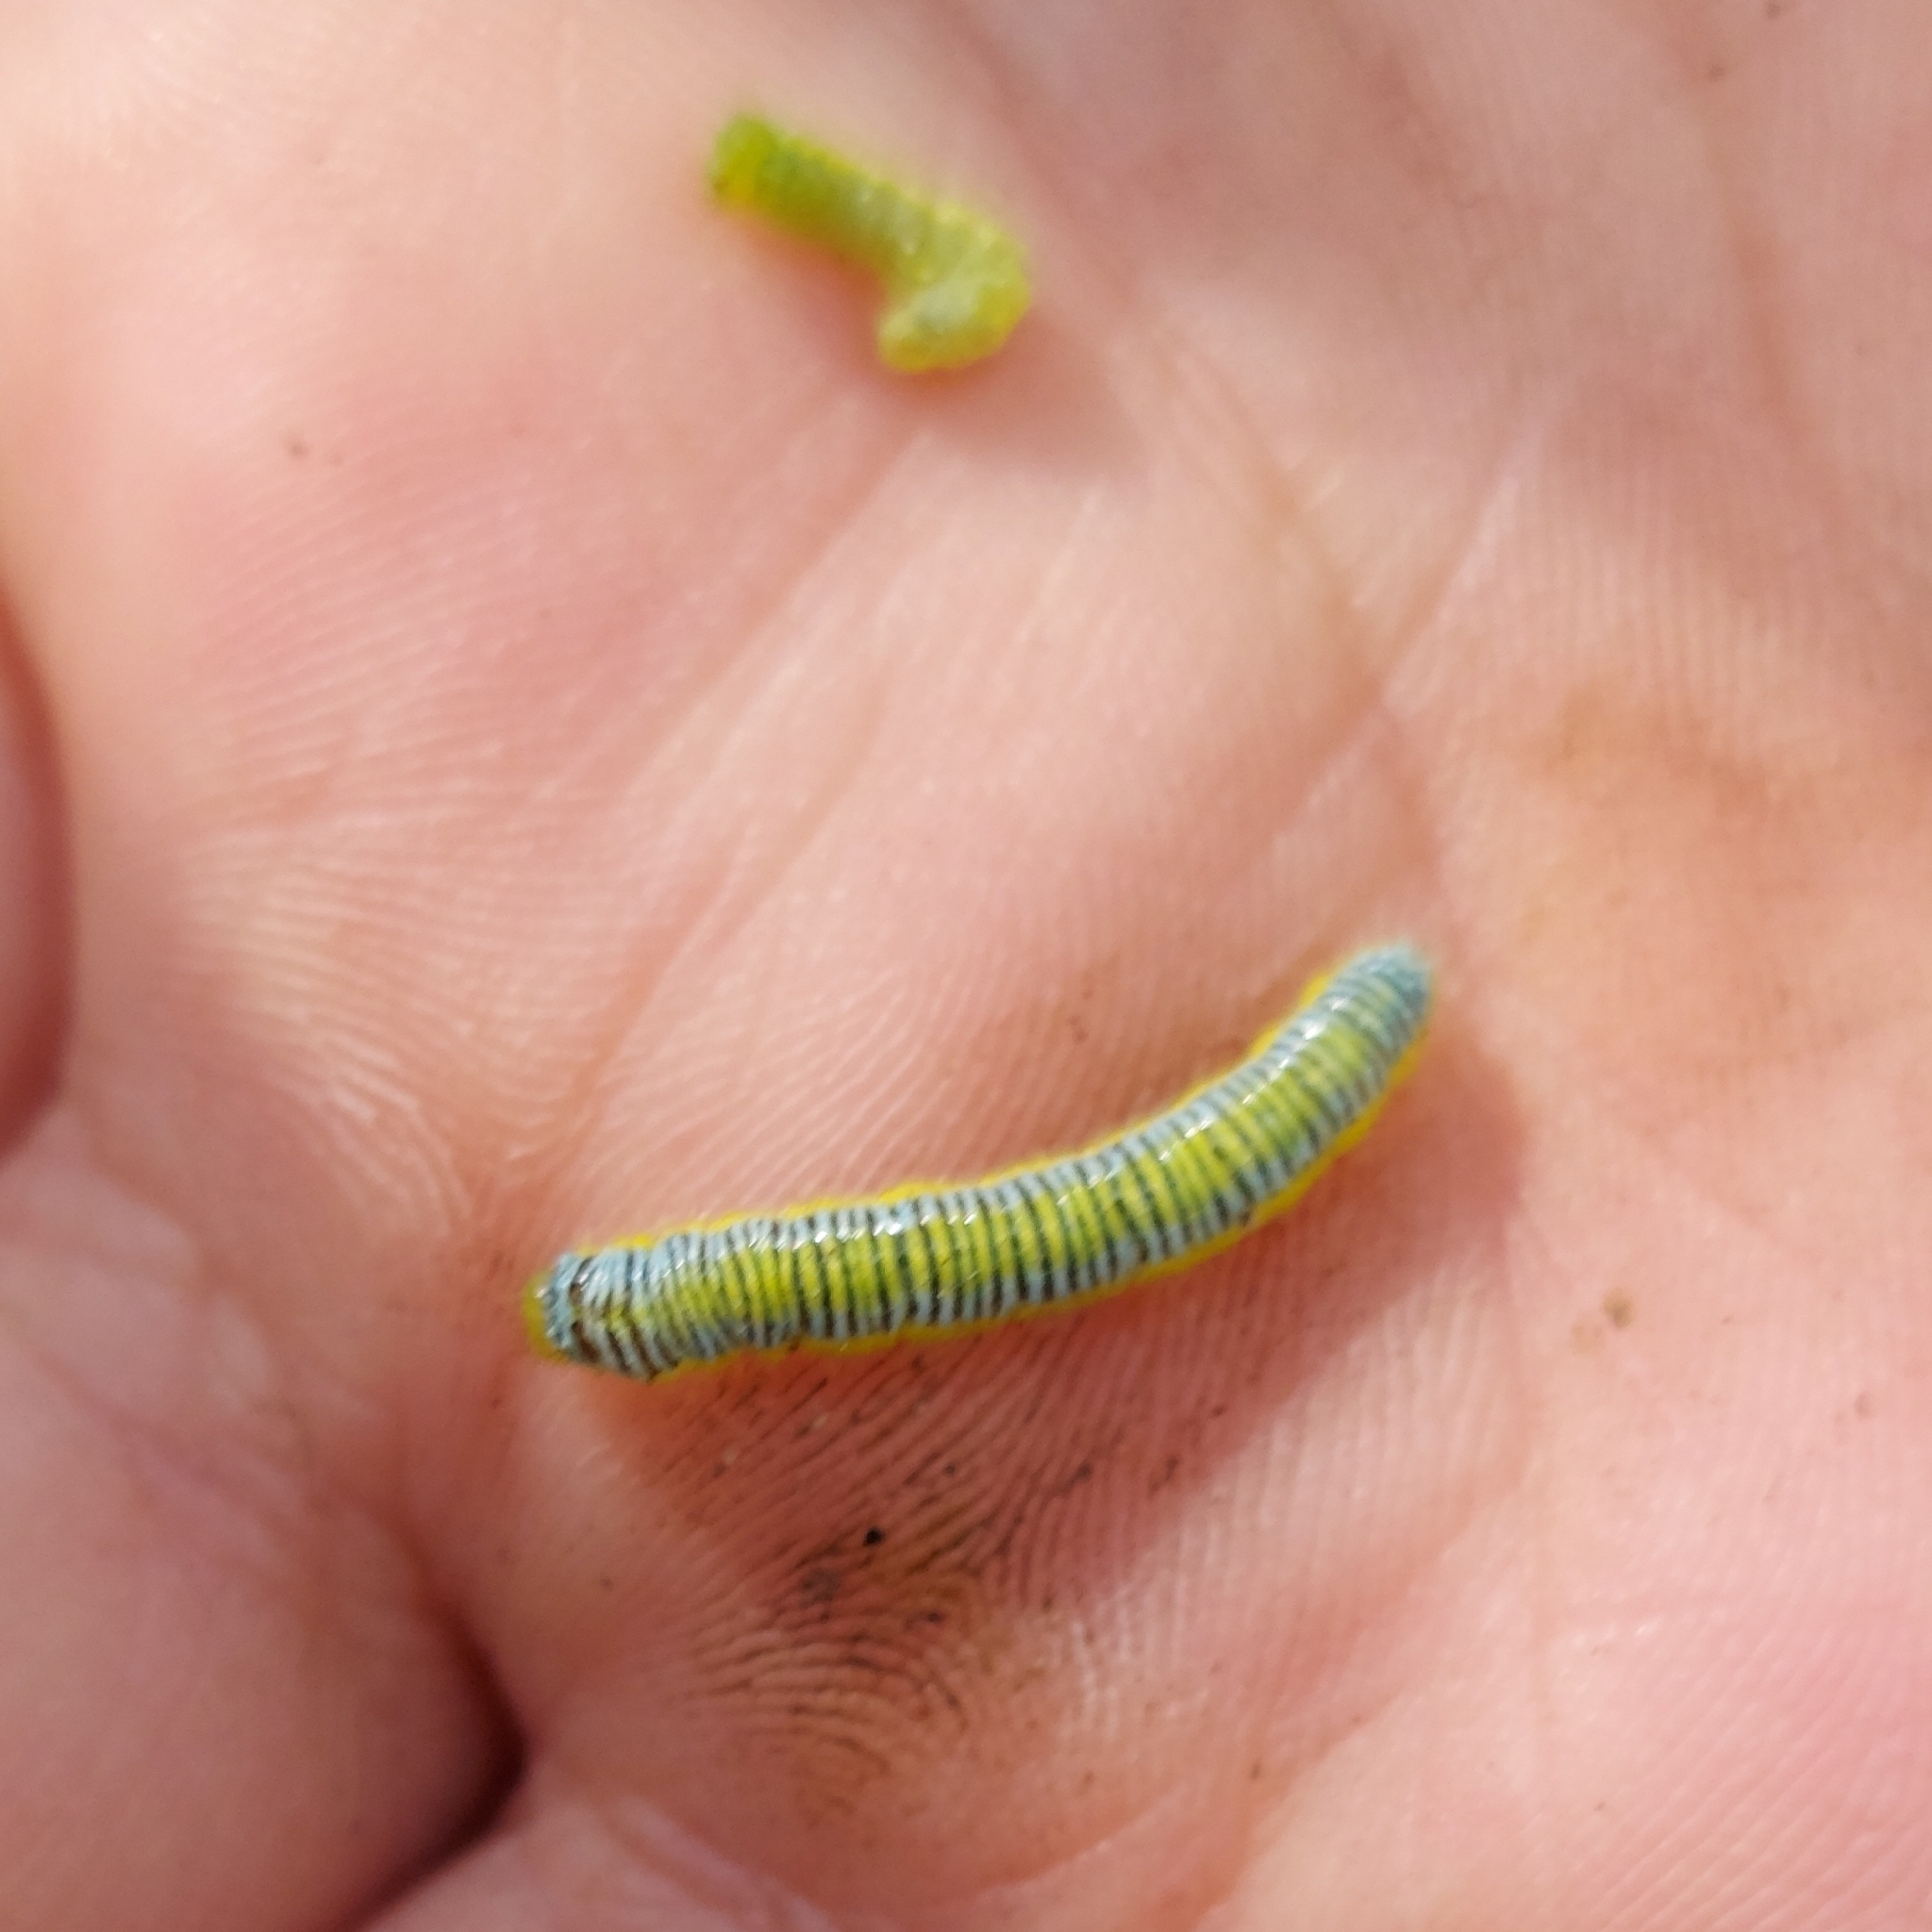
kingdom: Animalia
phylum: Arthropoda
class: Insecta
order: Lepidoptera
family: Pieridae
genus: Leptophobia
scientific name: Leptophobia aripa
